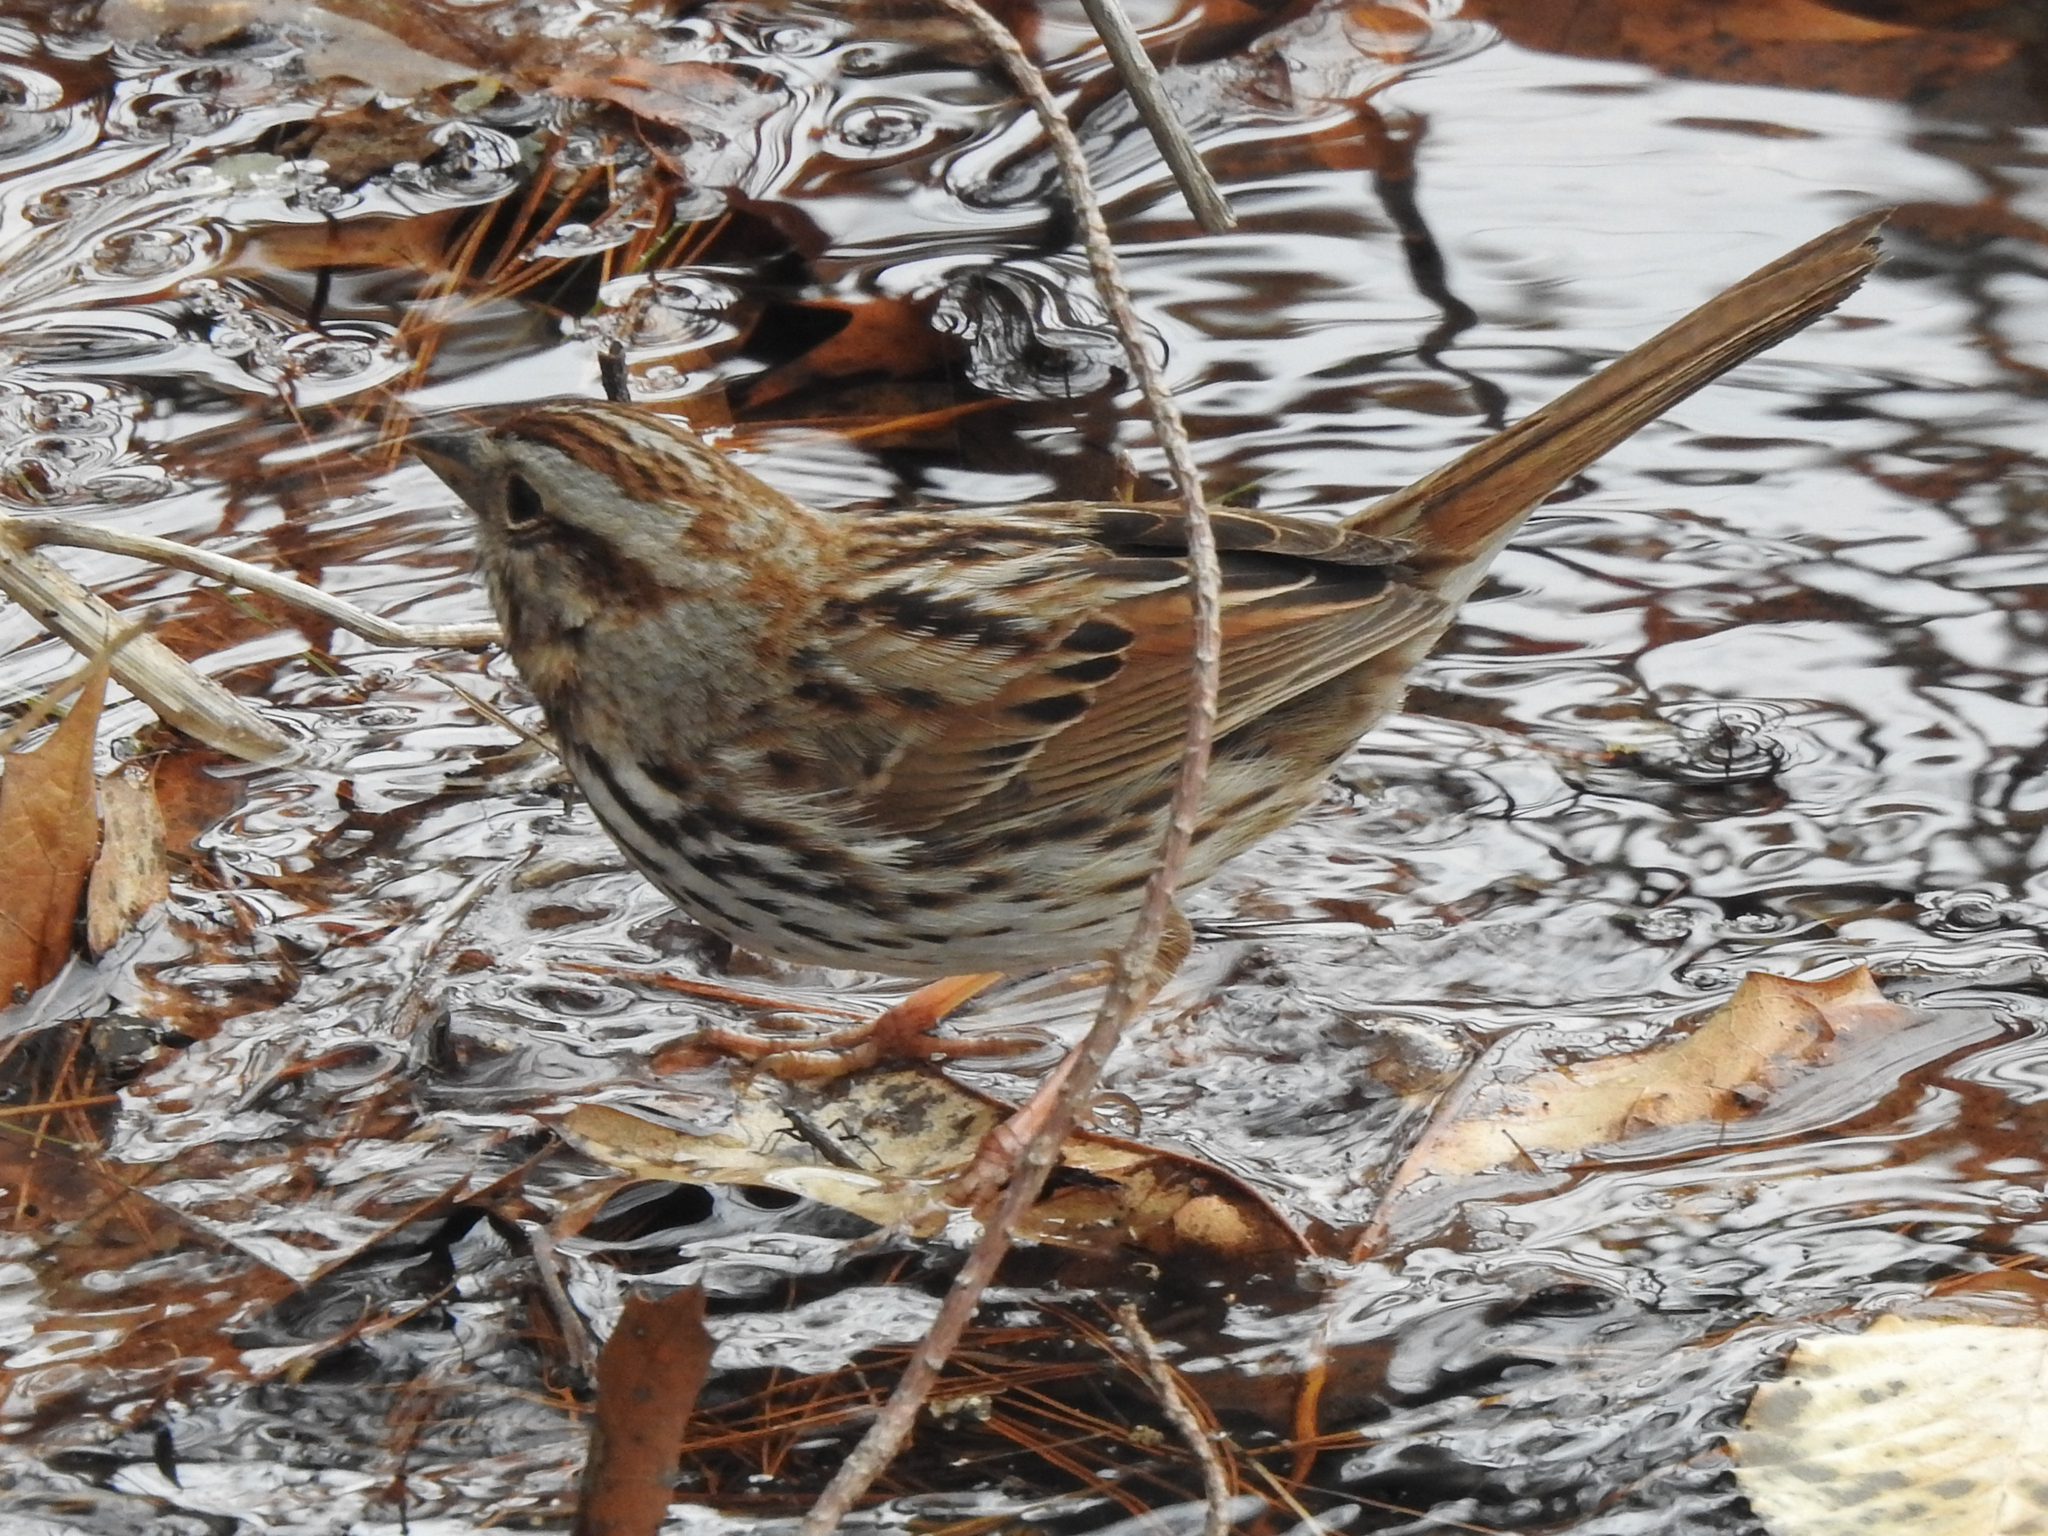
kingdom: Animalia
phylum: Chordata
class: Aves
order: Passeriformes
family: Passerellidae
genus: Melospiza
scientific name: Melospiza melodia
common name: Song sparrow
